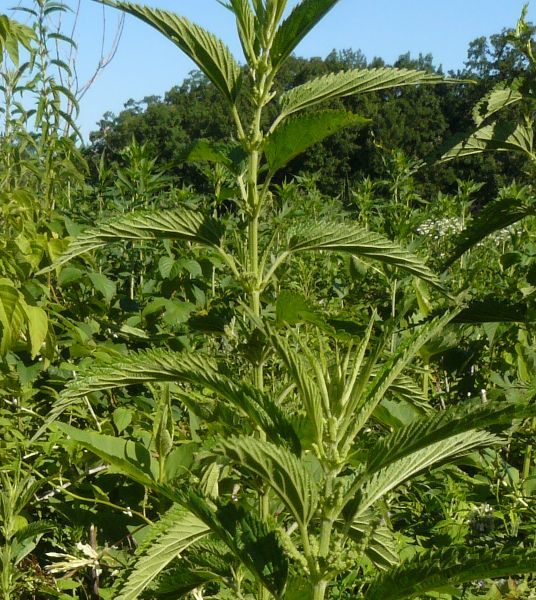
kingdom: Plantae
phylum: Tracheophyta
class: Magnoliopsida
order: Rosales
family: Urticaceae
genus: Urtica
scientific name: Urtica dioica
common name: Common nettle
